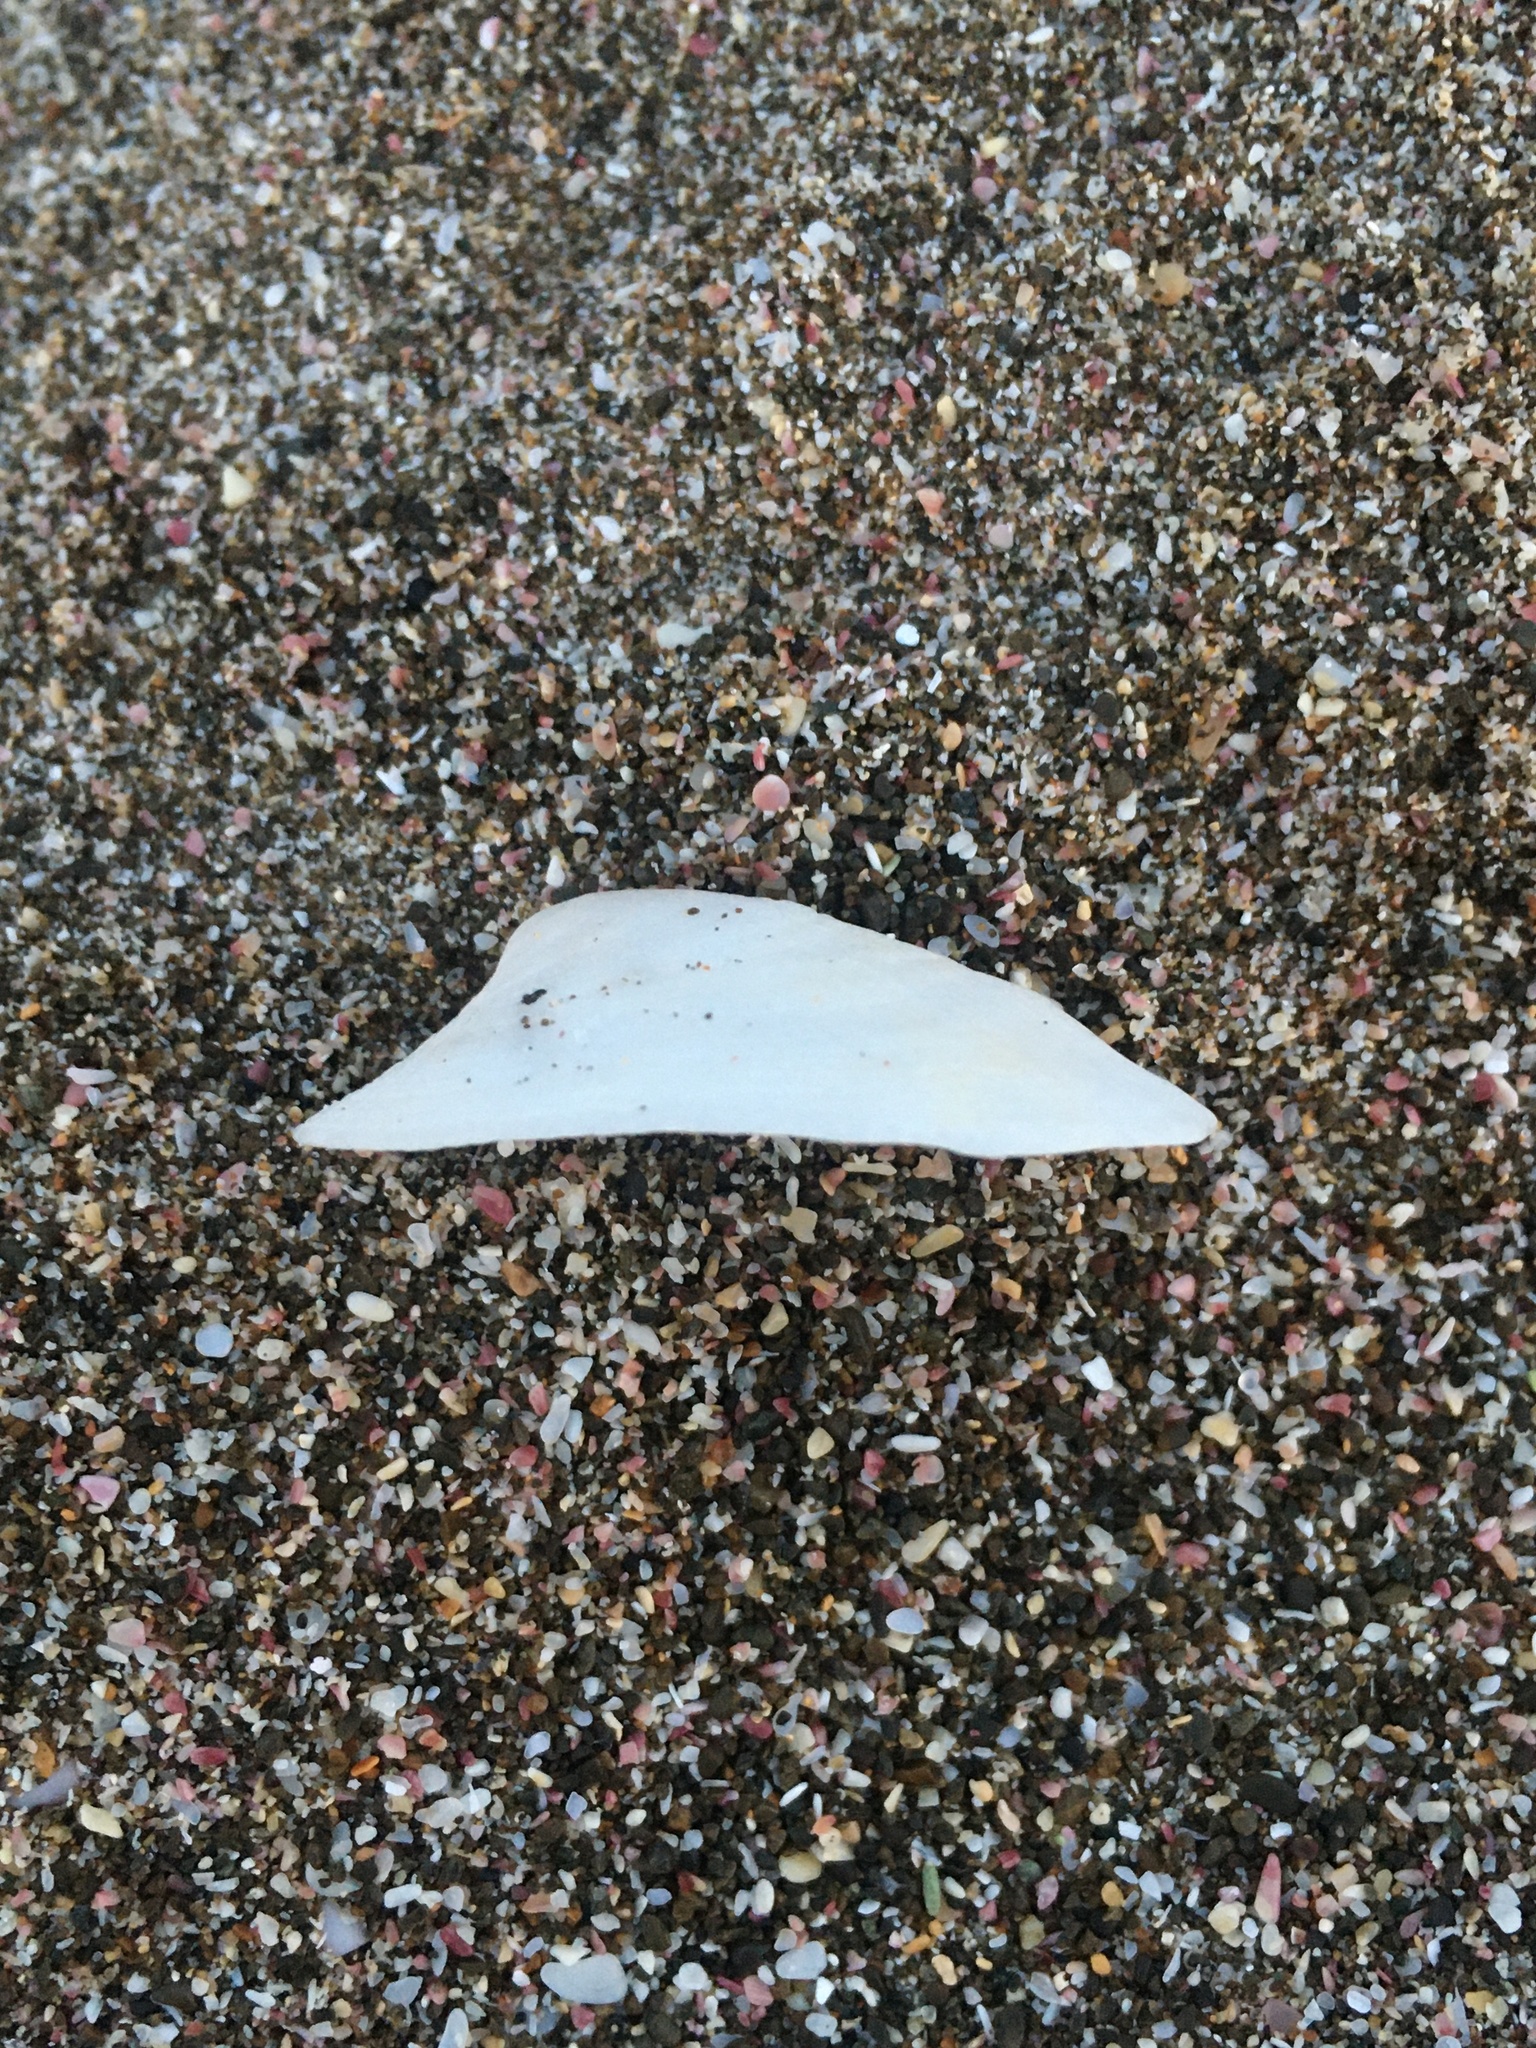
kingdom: Animalia
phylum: Mollusca
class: Gastropoda
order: Lepetellida
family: Fissurellidae
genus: Tugali
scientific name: Tugali elegans
